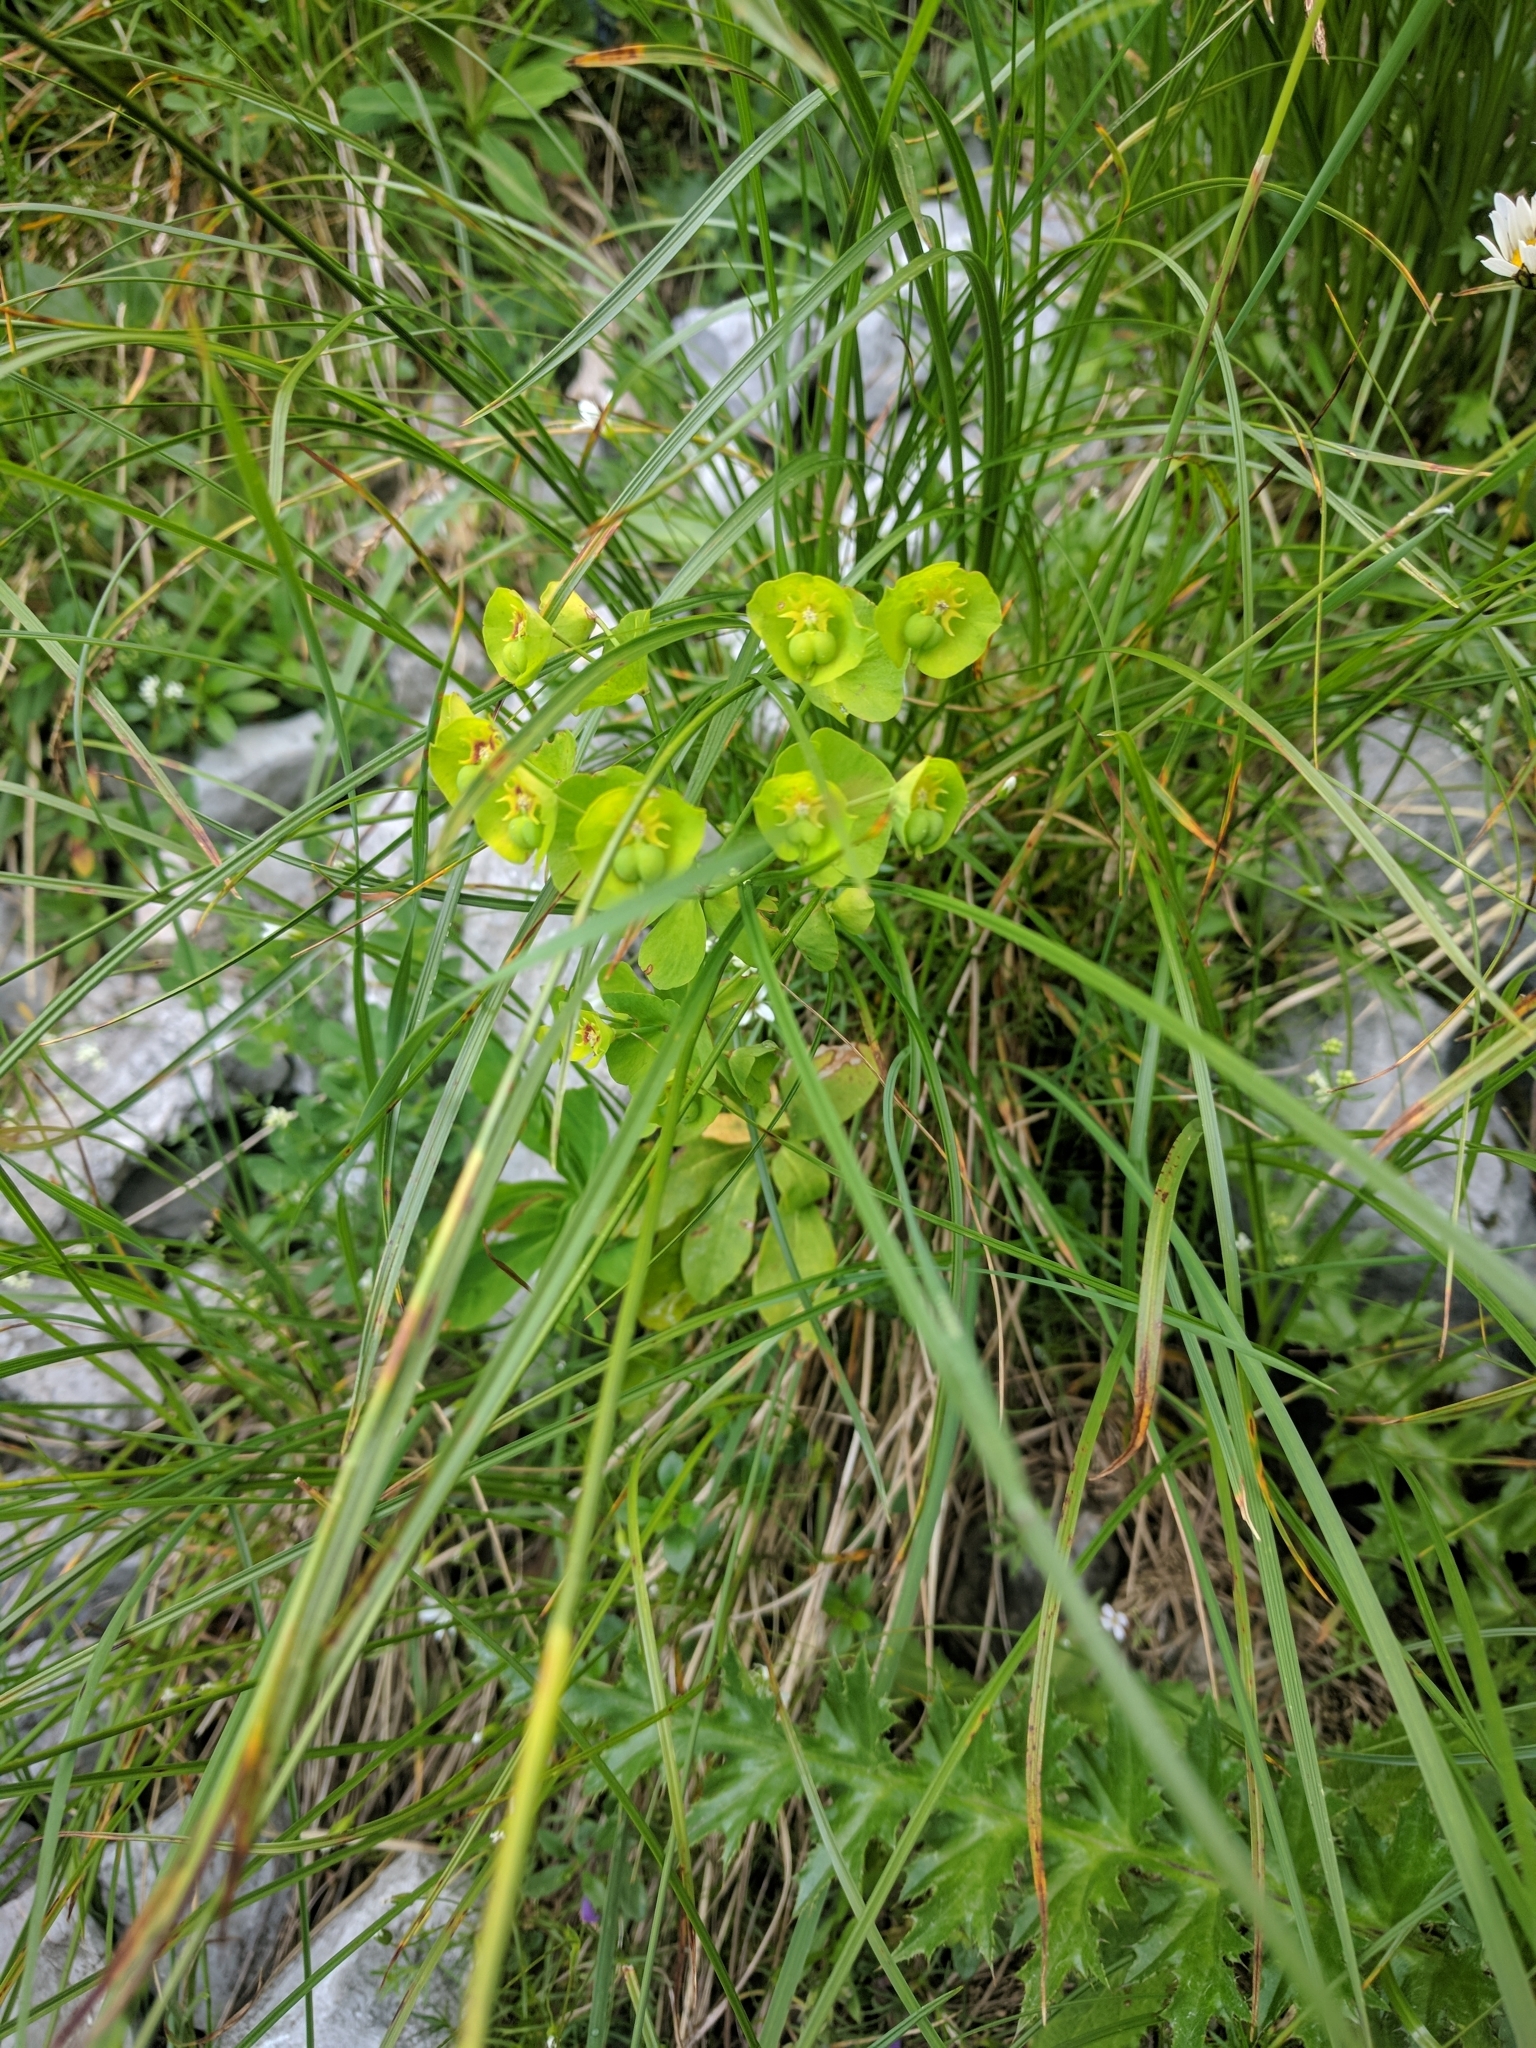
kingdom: Plantae
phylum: Tracheophyta
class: Magnoliopsida
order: Malpighiales
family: Euphorbiaceae
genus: Euphorbia
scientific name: Euphorbia amygdaloides
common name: Wood spurge
